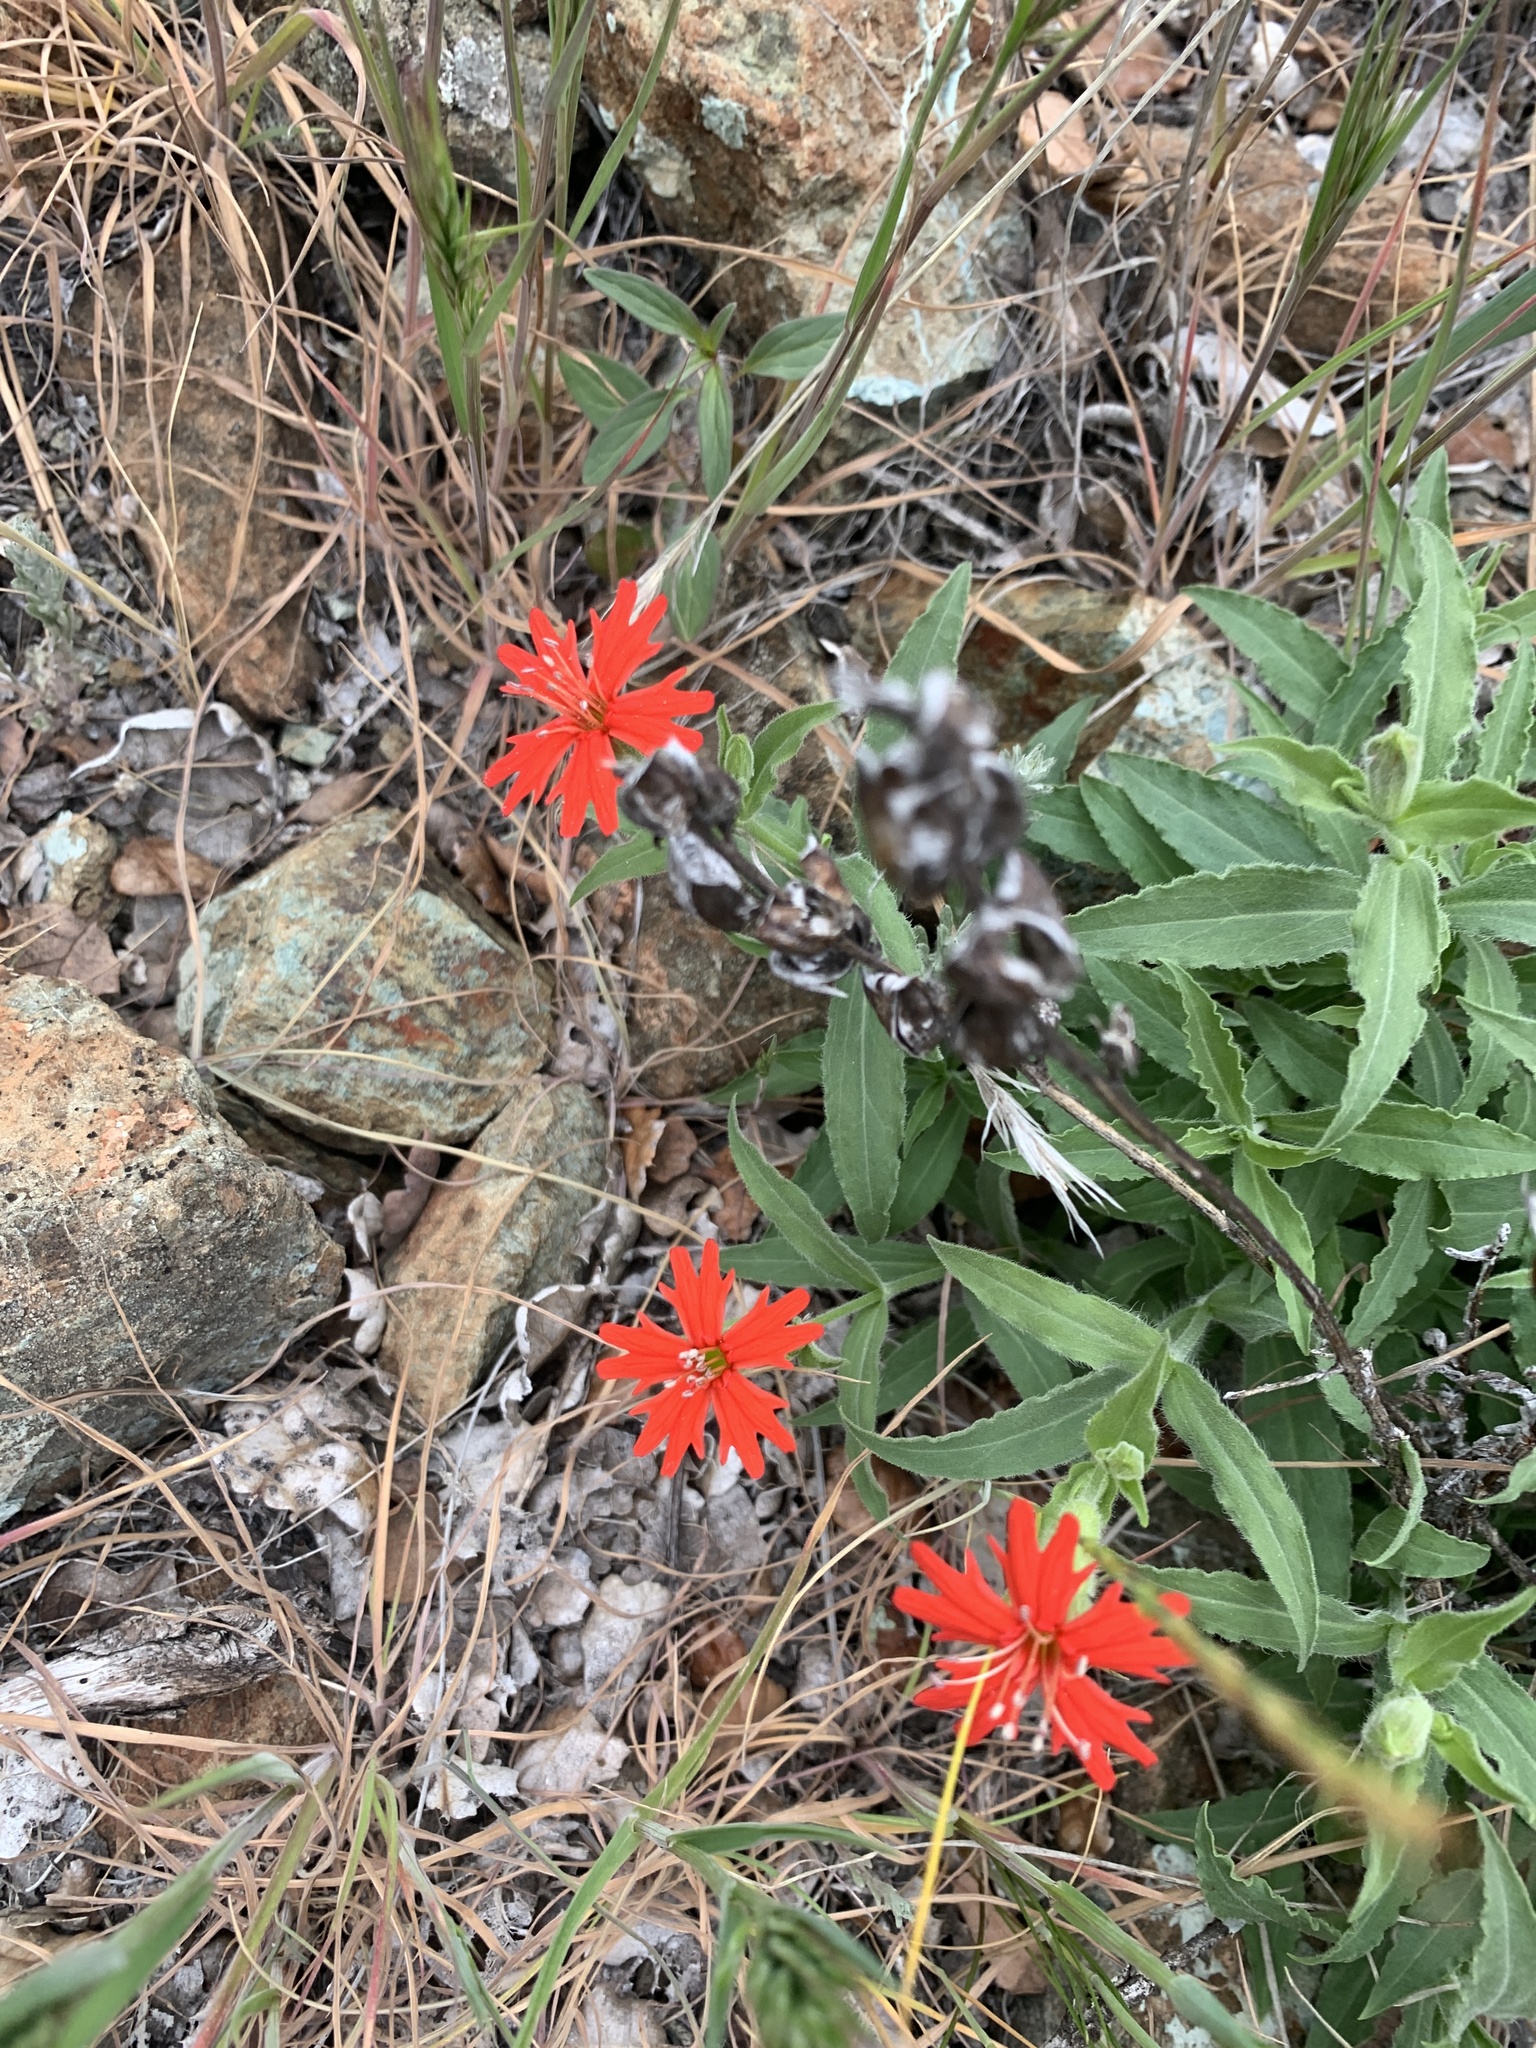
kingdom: Plantae
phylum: Tracheophyta
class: Magnoliopsida
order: Caryophyllales
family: Caryophyllaceae
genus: Silene
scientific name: Silene laciniata
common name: Indian-pink
